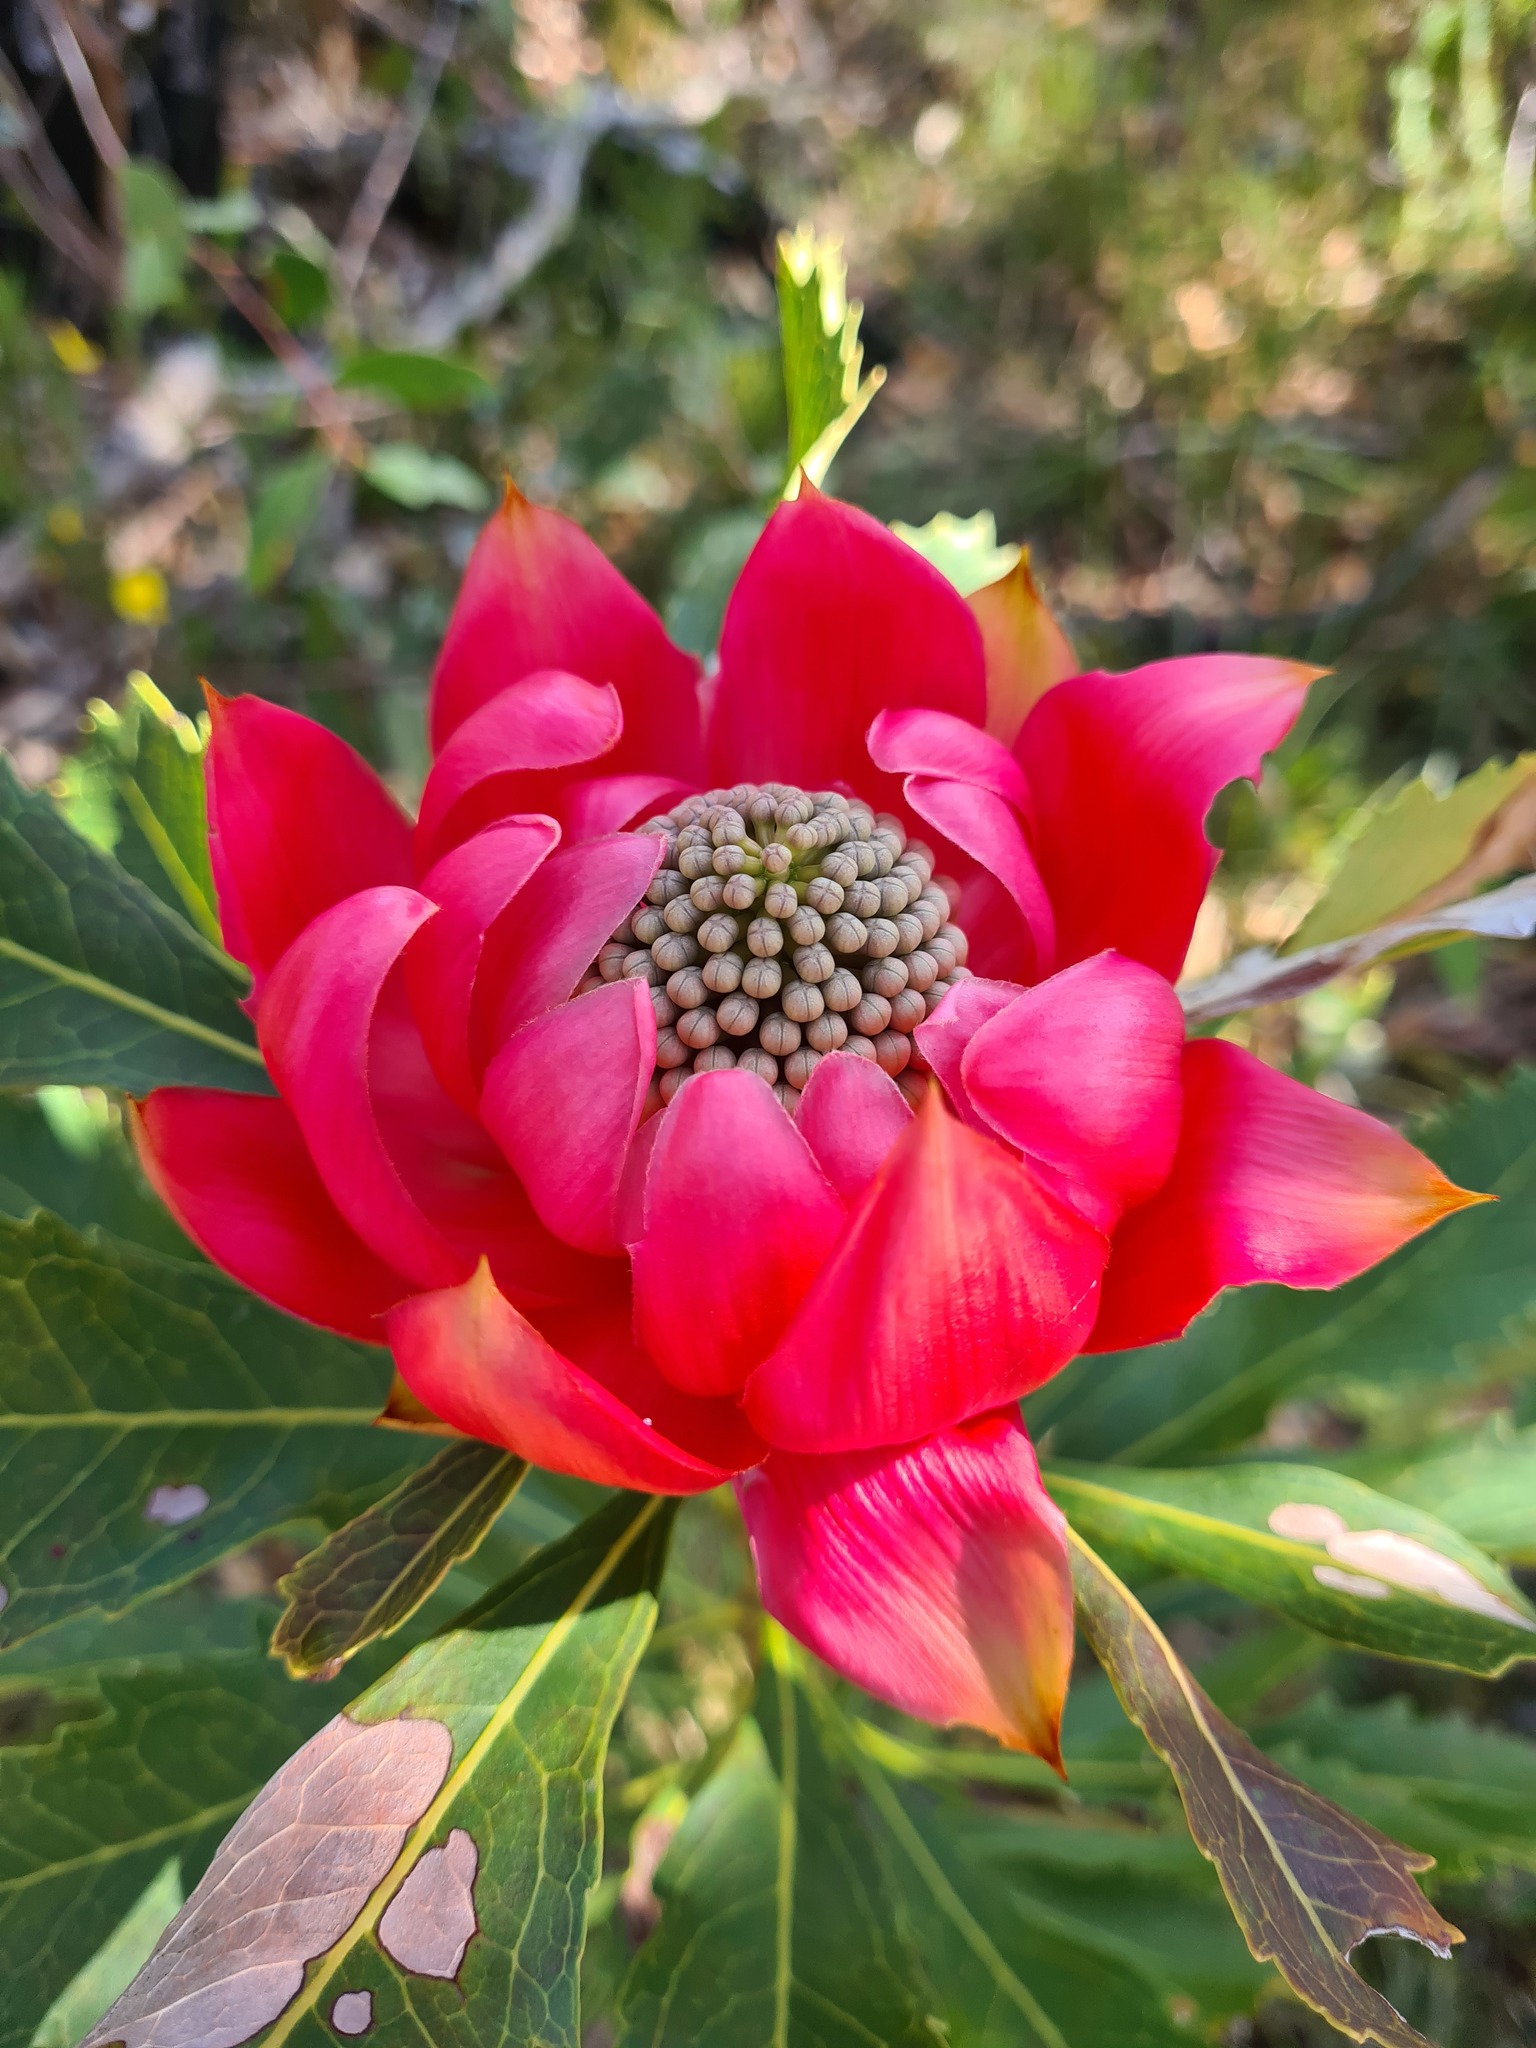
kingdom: Plantae
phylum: Tracheophyta
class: Magnoliopsida
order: Proteales
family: Proteaceae
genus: Telopea
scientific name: Telopea speciosissima
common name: New south wales waratah
